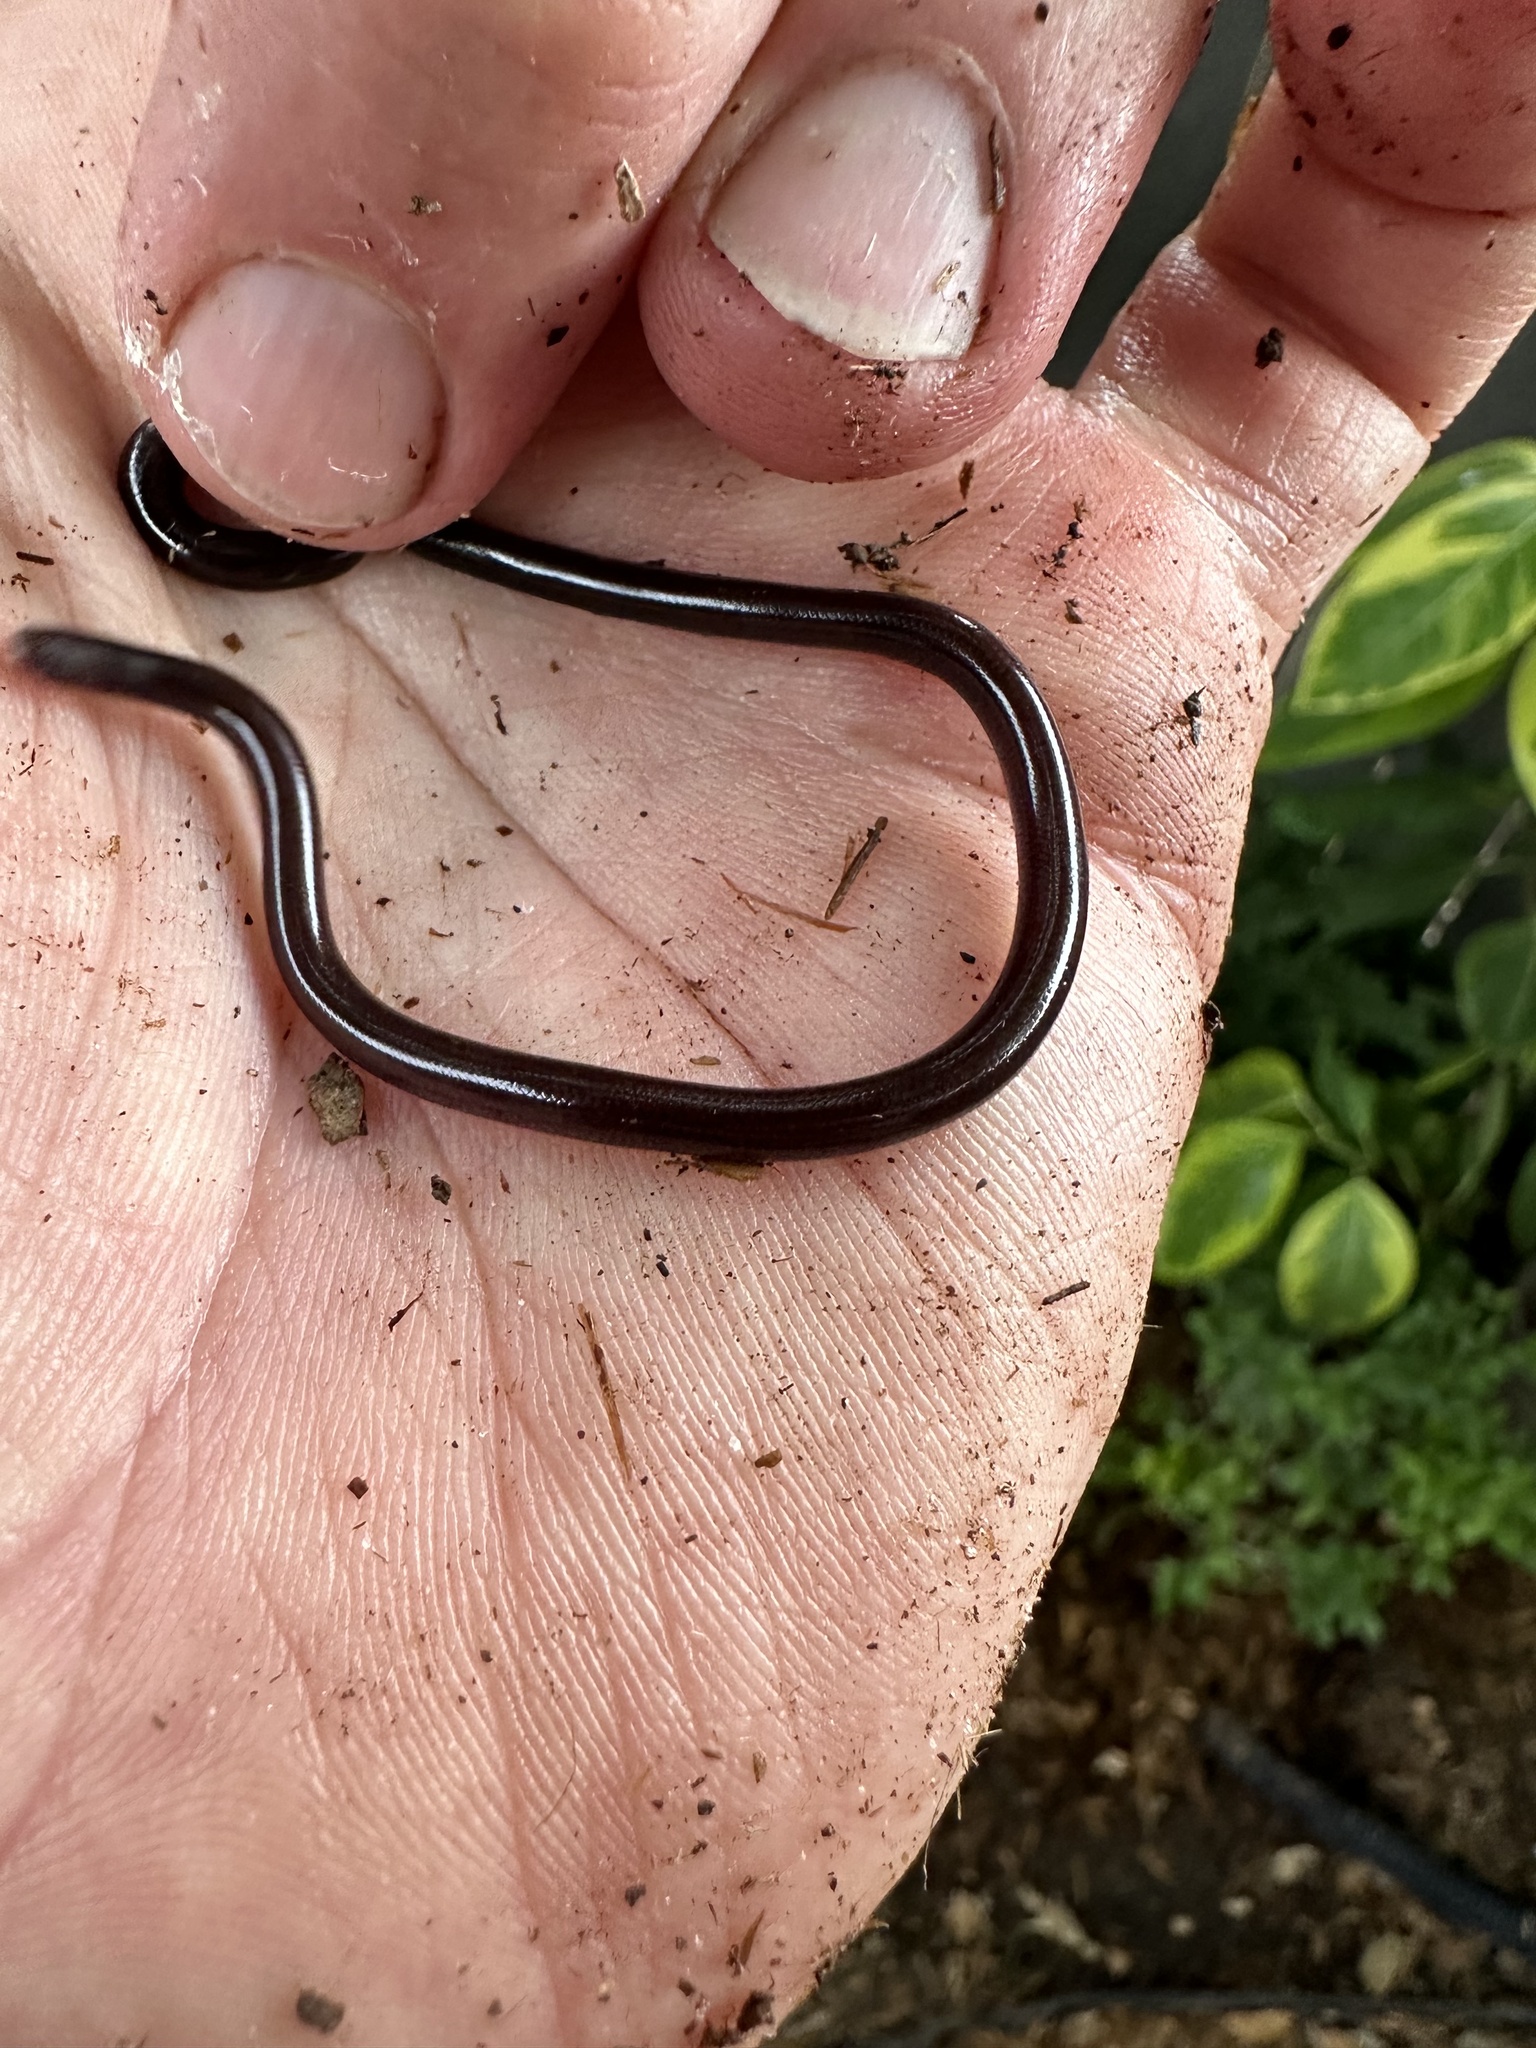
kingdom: Animalia
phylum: Chordata
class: Squamata
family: Typhlopidae
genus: Indotyphlops
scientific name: Indotyphlops braminus
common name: Brahminy blindsnake
